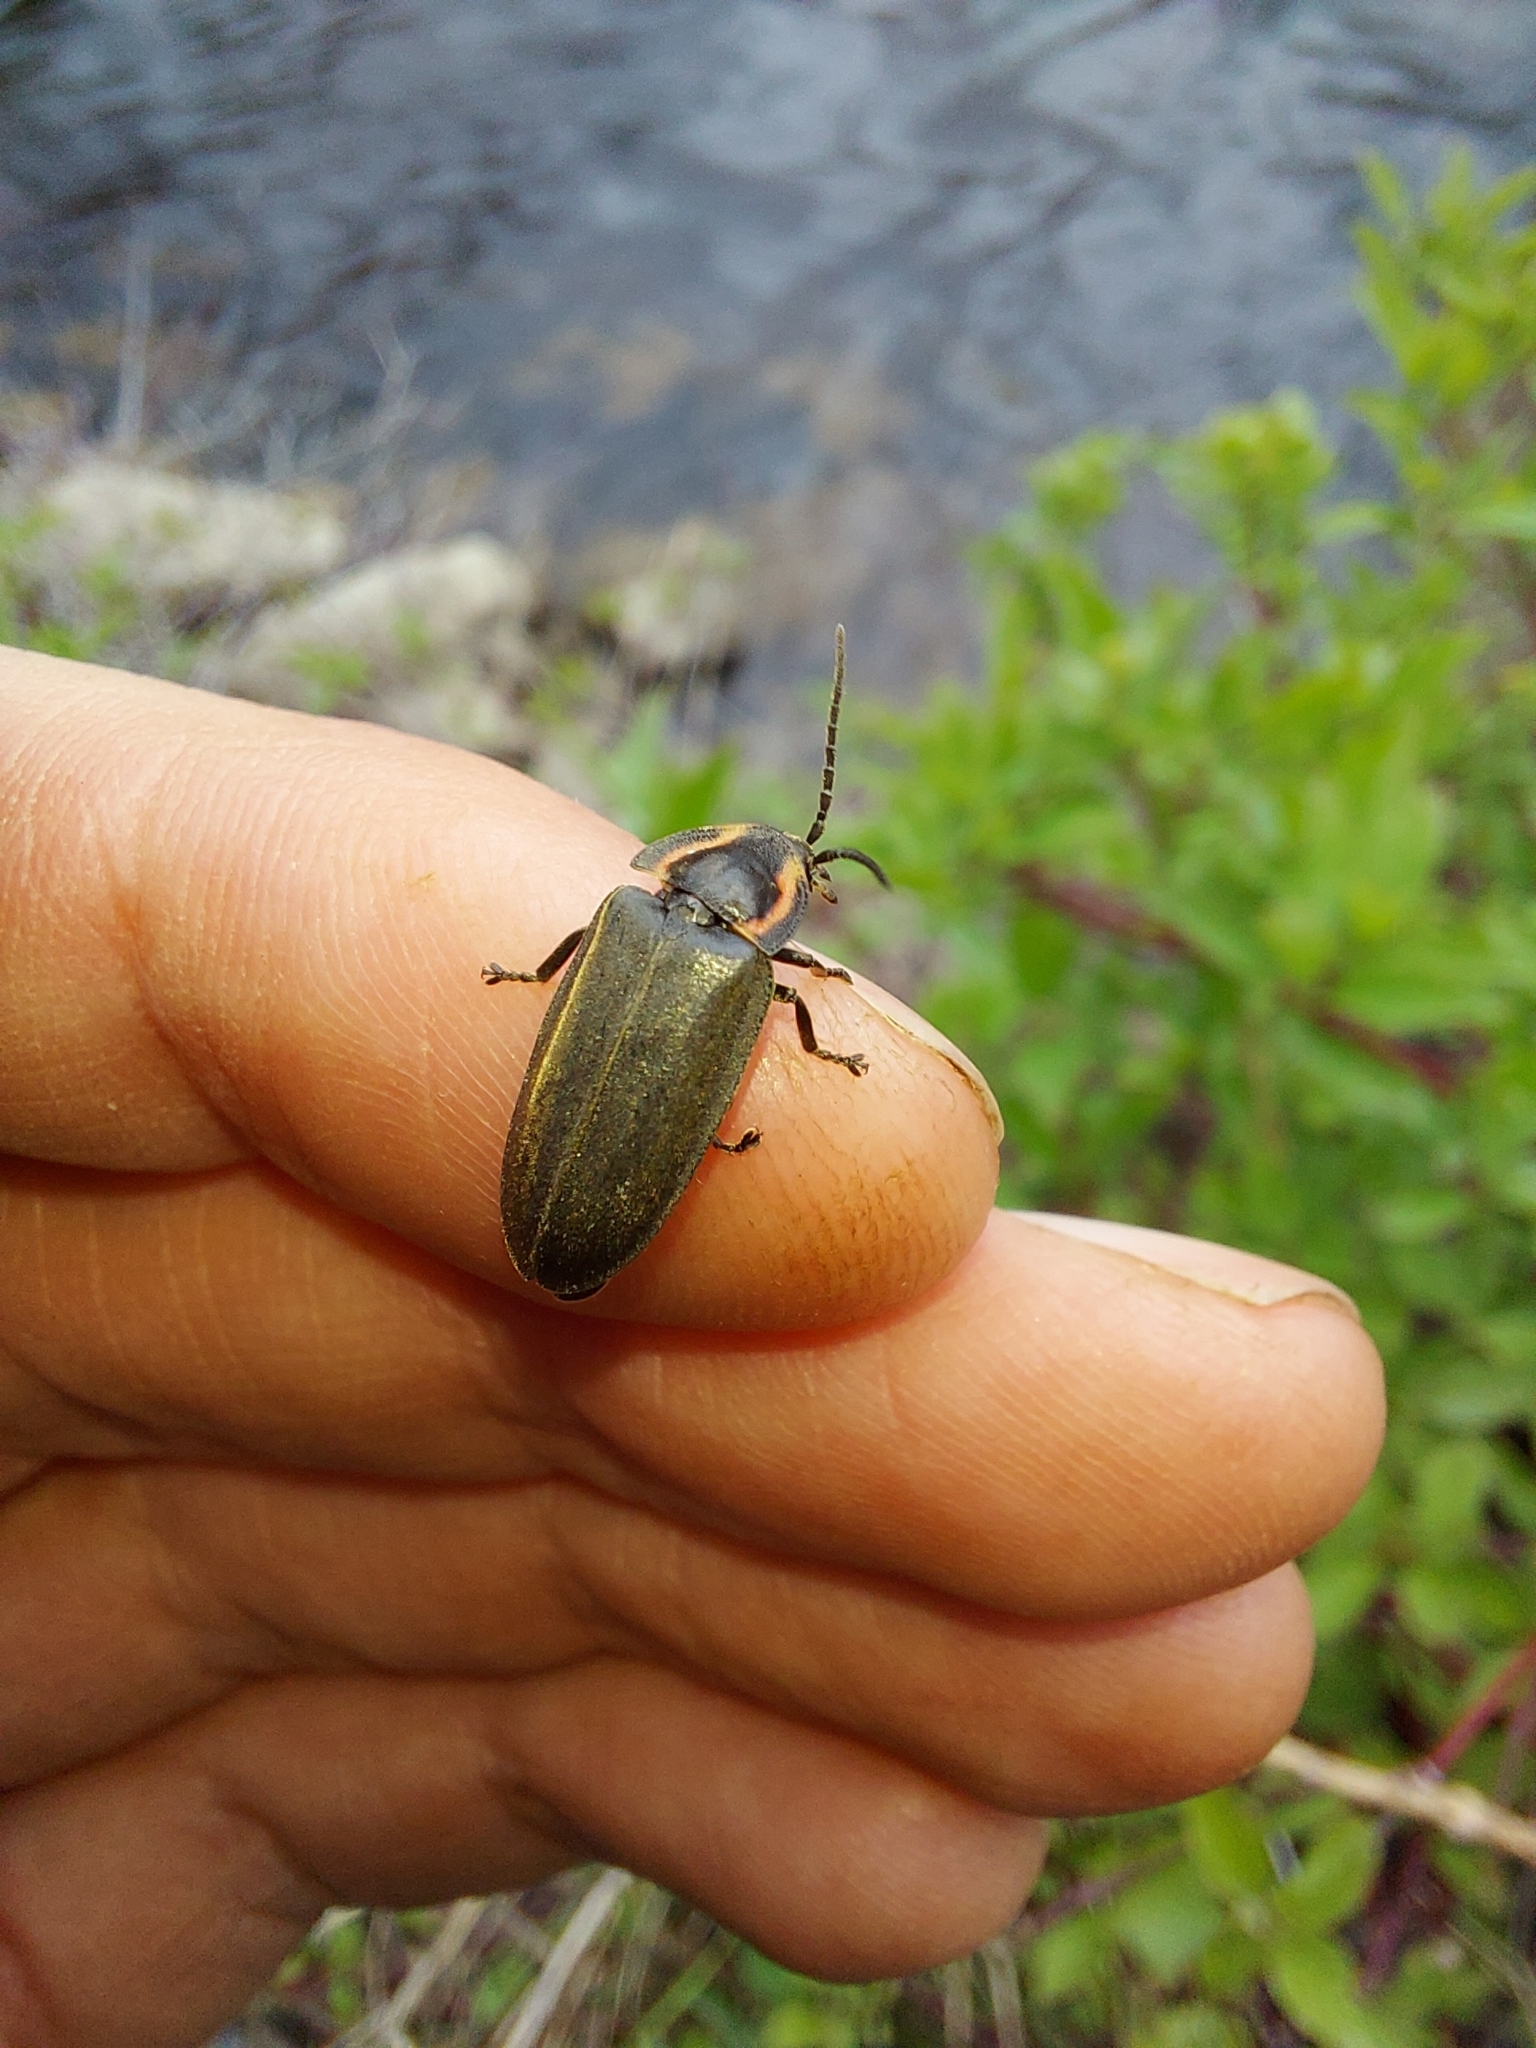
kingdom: Animalia
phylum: Arthropoda
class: Insecta
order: Coleoptera
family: Lampyridae
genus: Photinus
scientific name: Photinus corrusca
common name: Winter firefly
